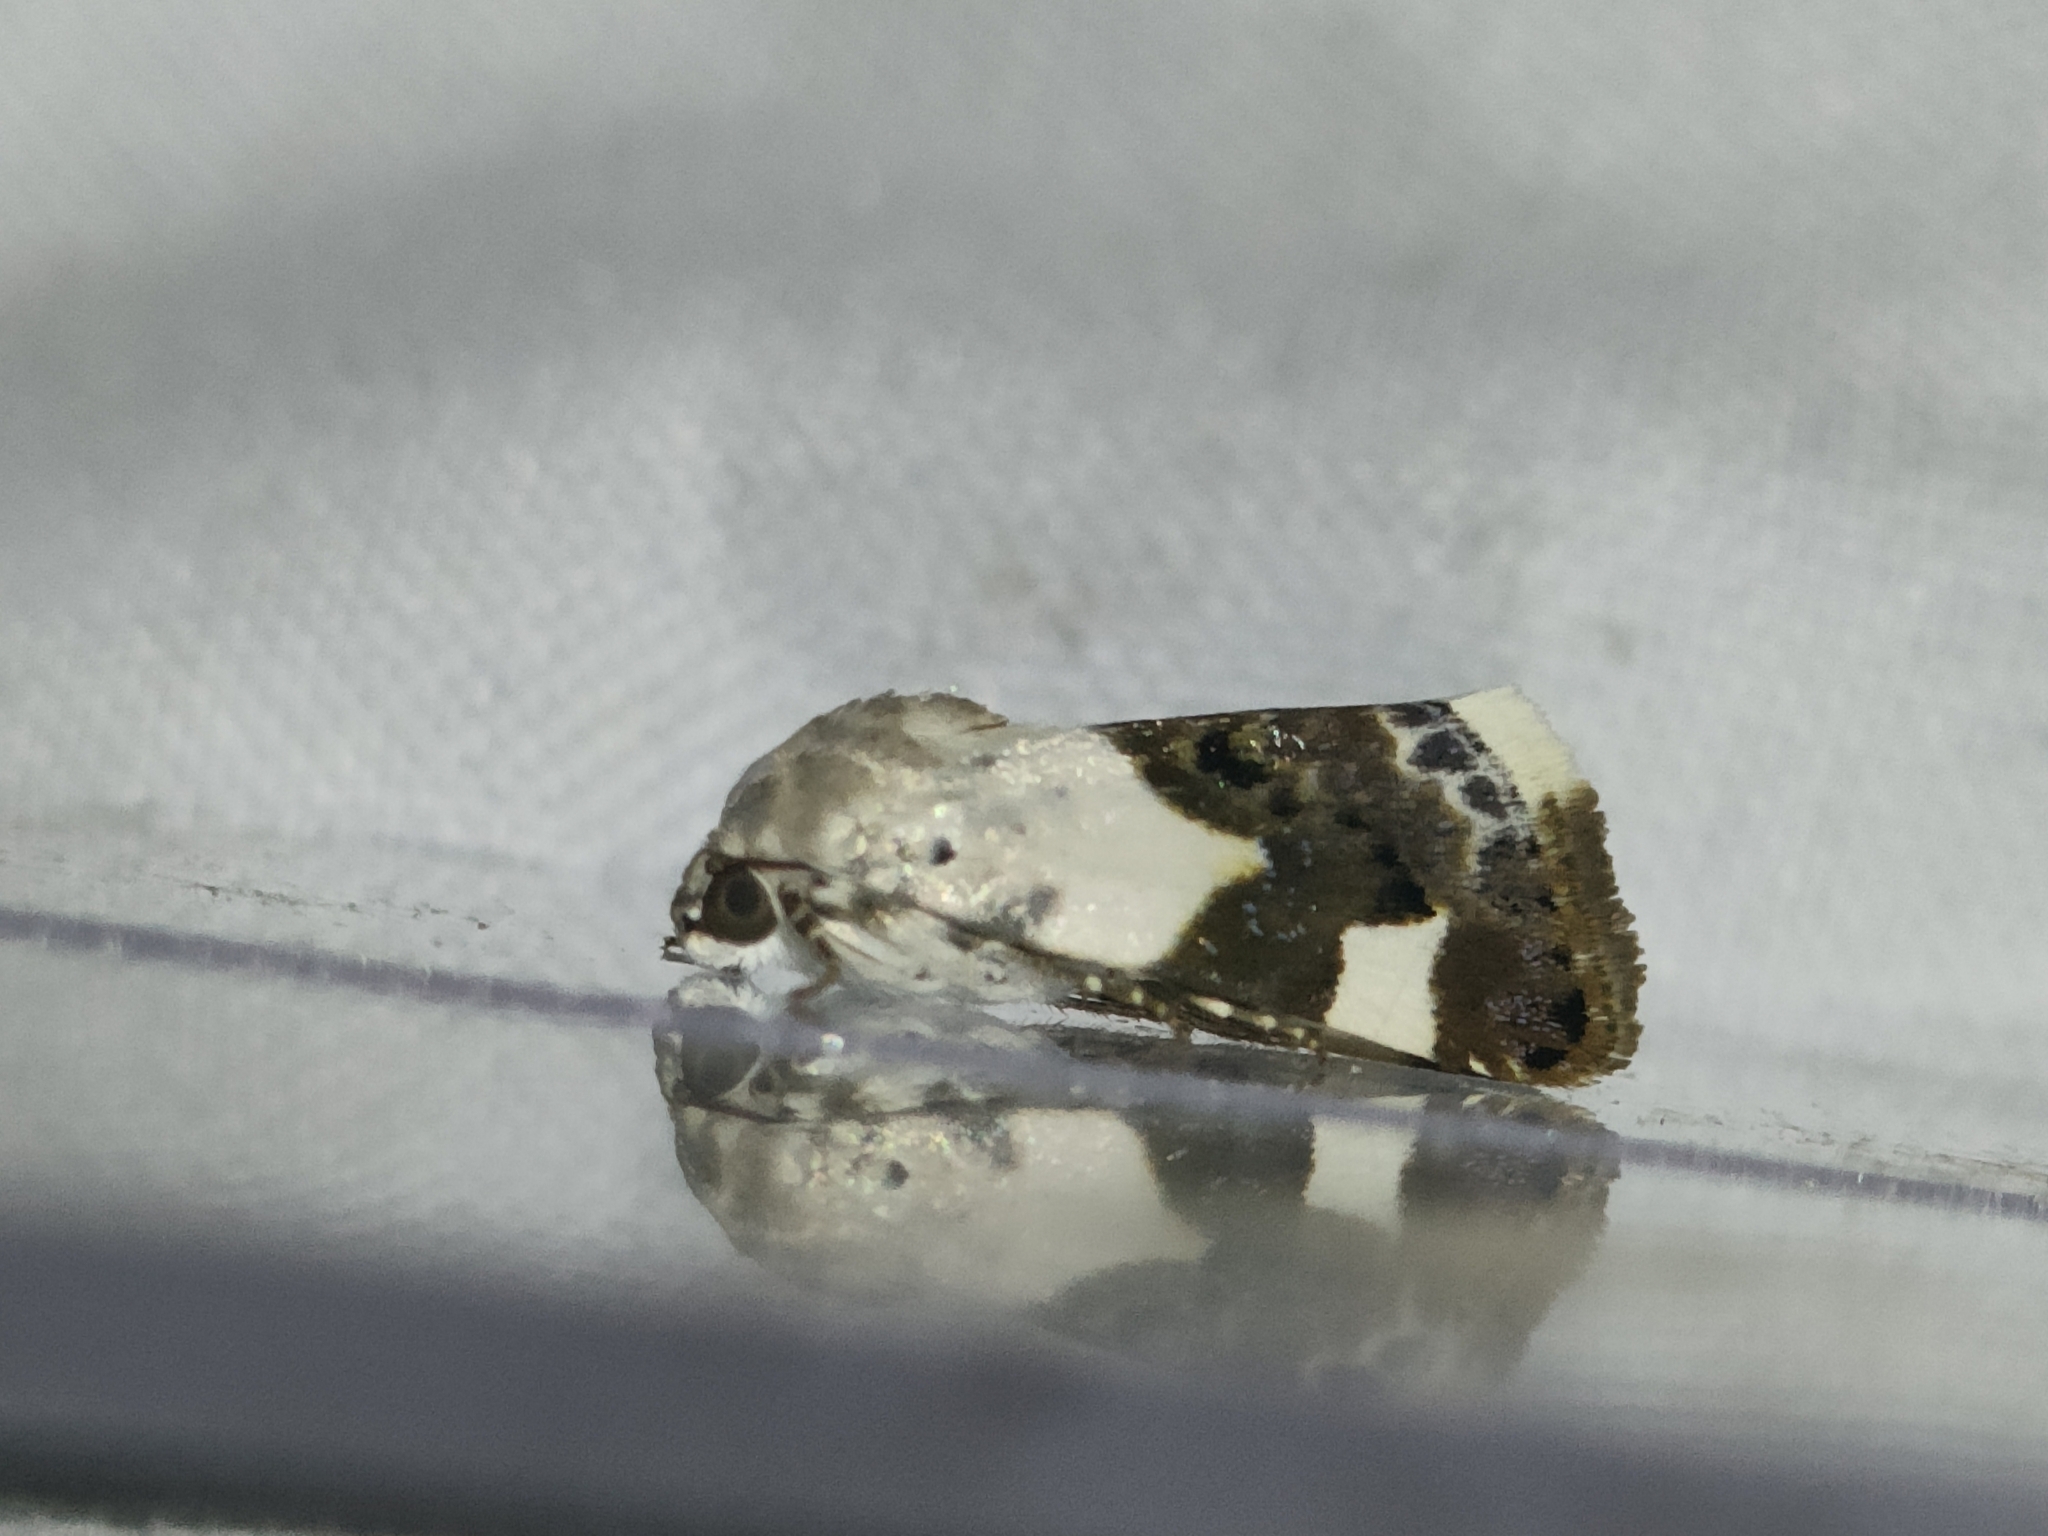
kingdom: Animalia
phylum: Arthropoda
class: Insecta
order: Lepidoptera
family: Noctuidae
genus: Acontia
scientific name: Acontia lucida
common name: Pale shoulder
